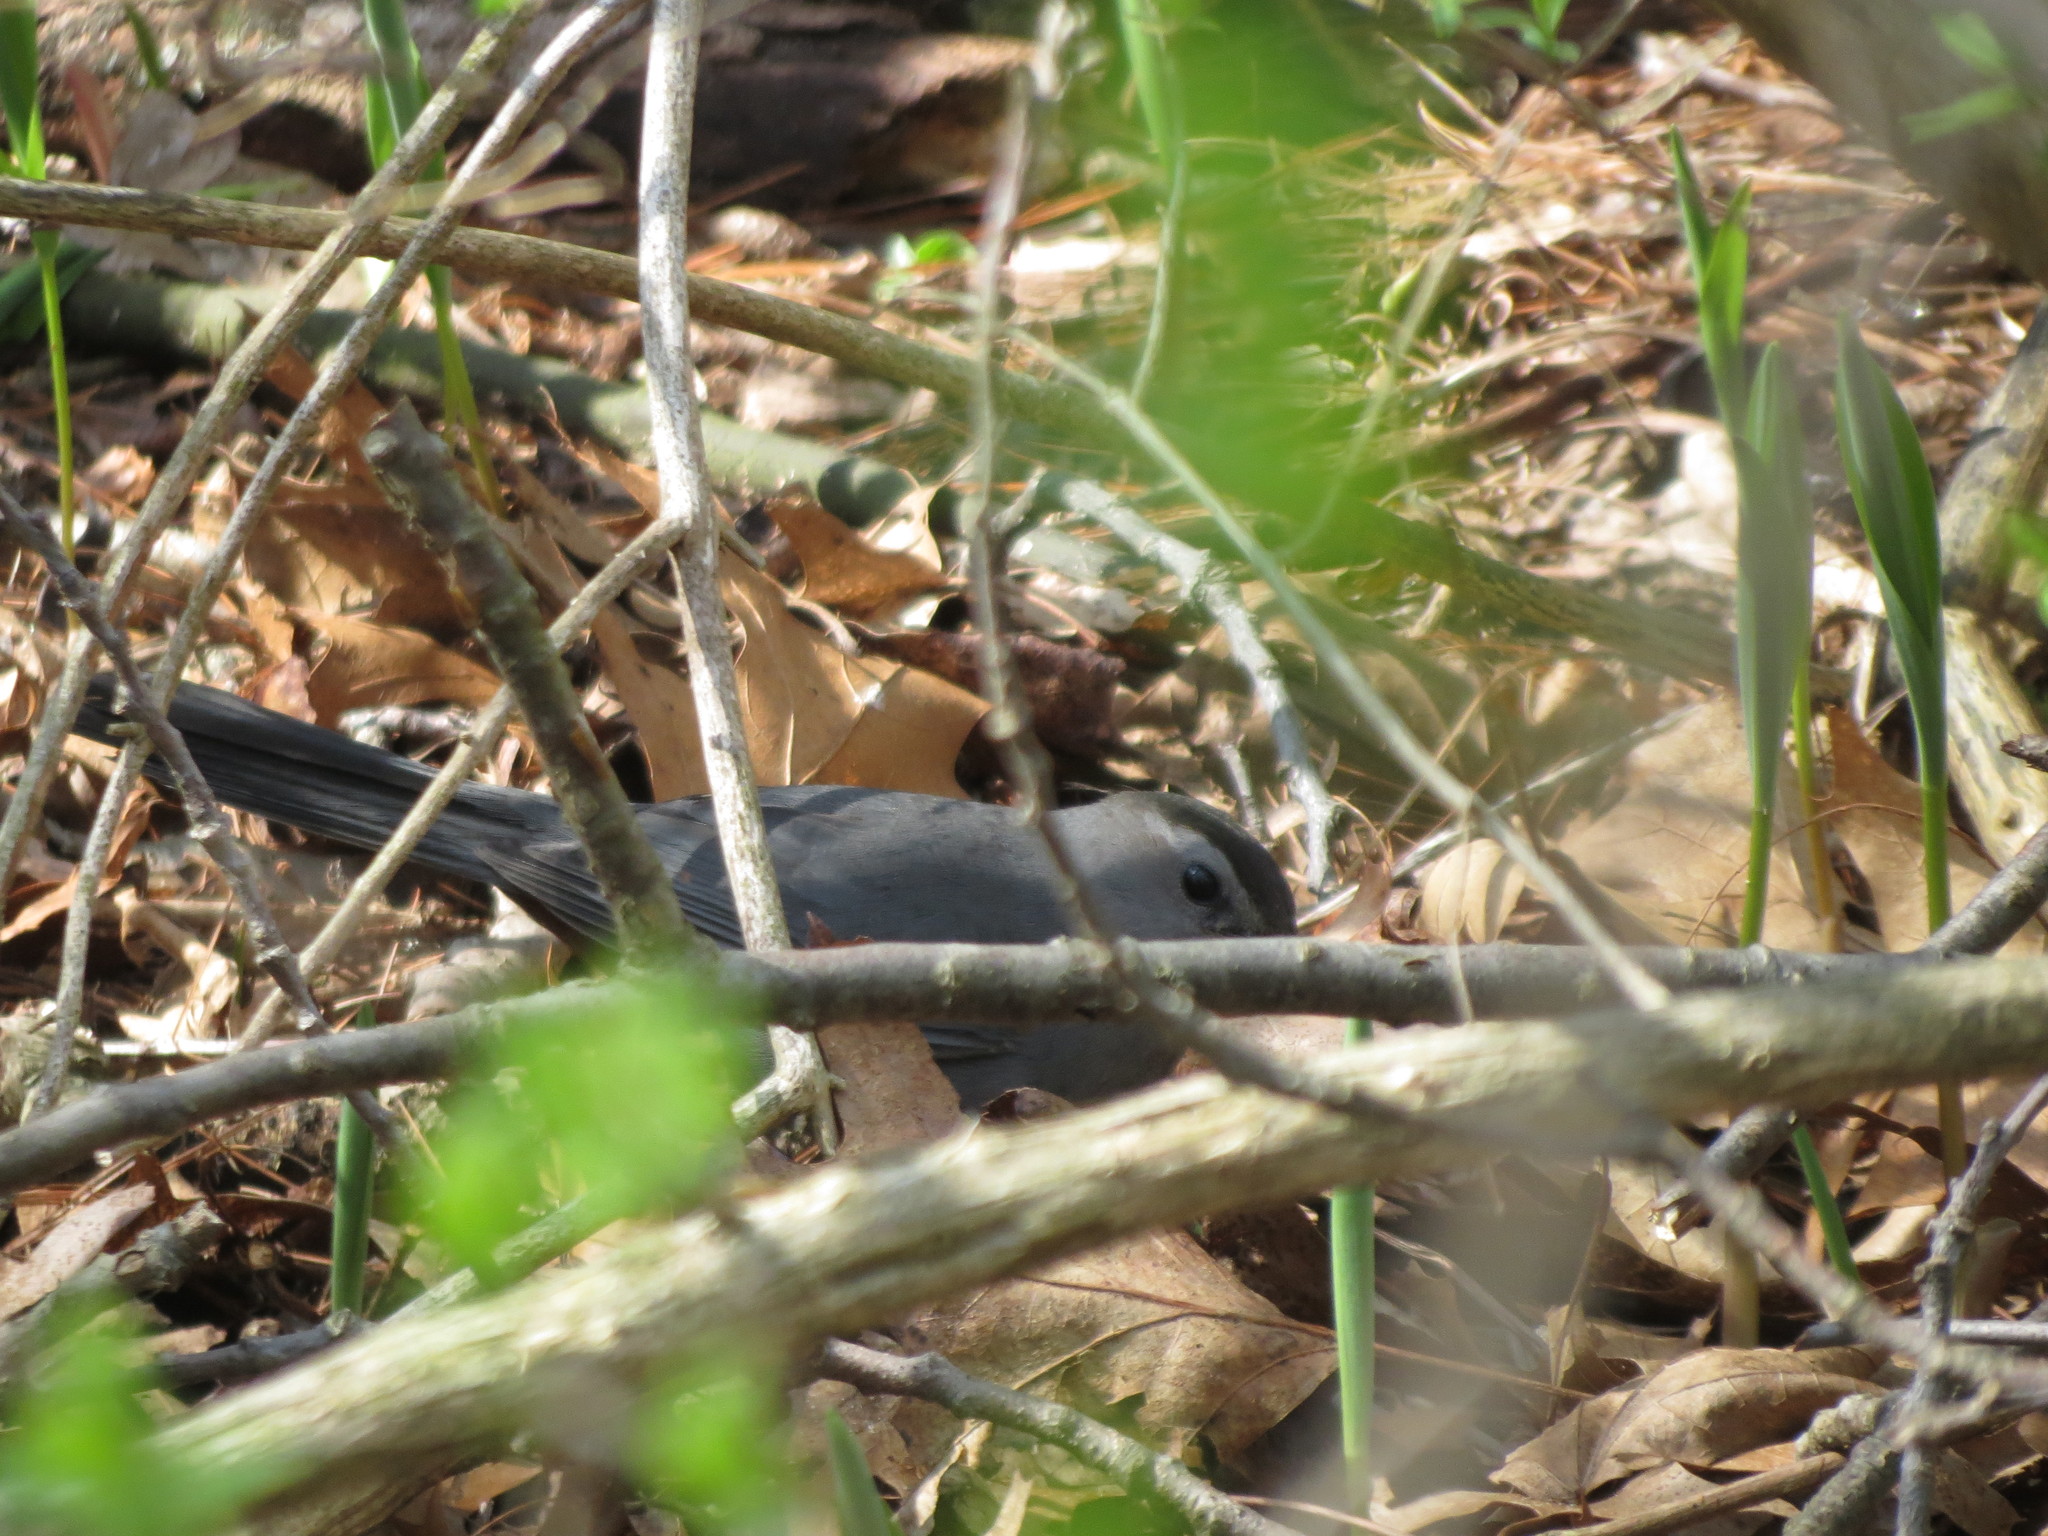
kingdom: Animalia
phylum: Chordata
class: Aves
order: Passeriformes
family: Mimidae
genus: Dumetella
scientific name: Dumetella carolinensis
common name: Gray catbird
